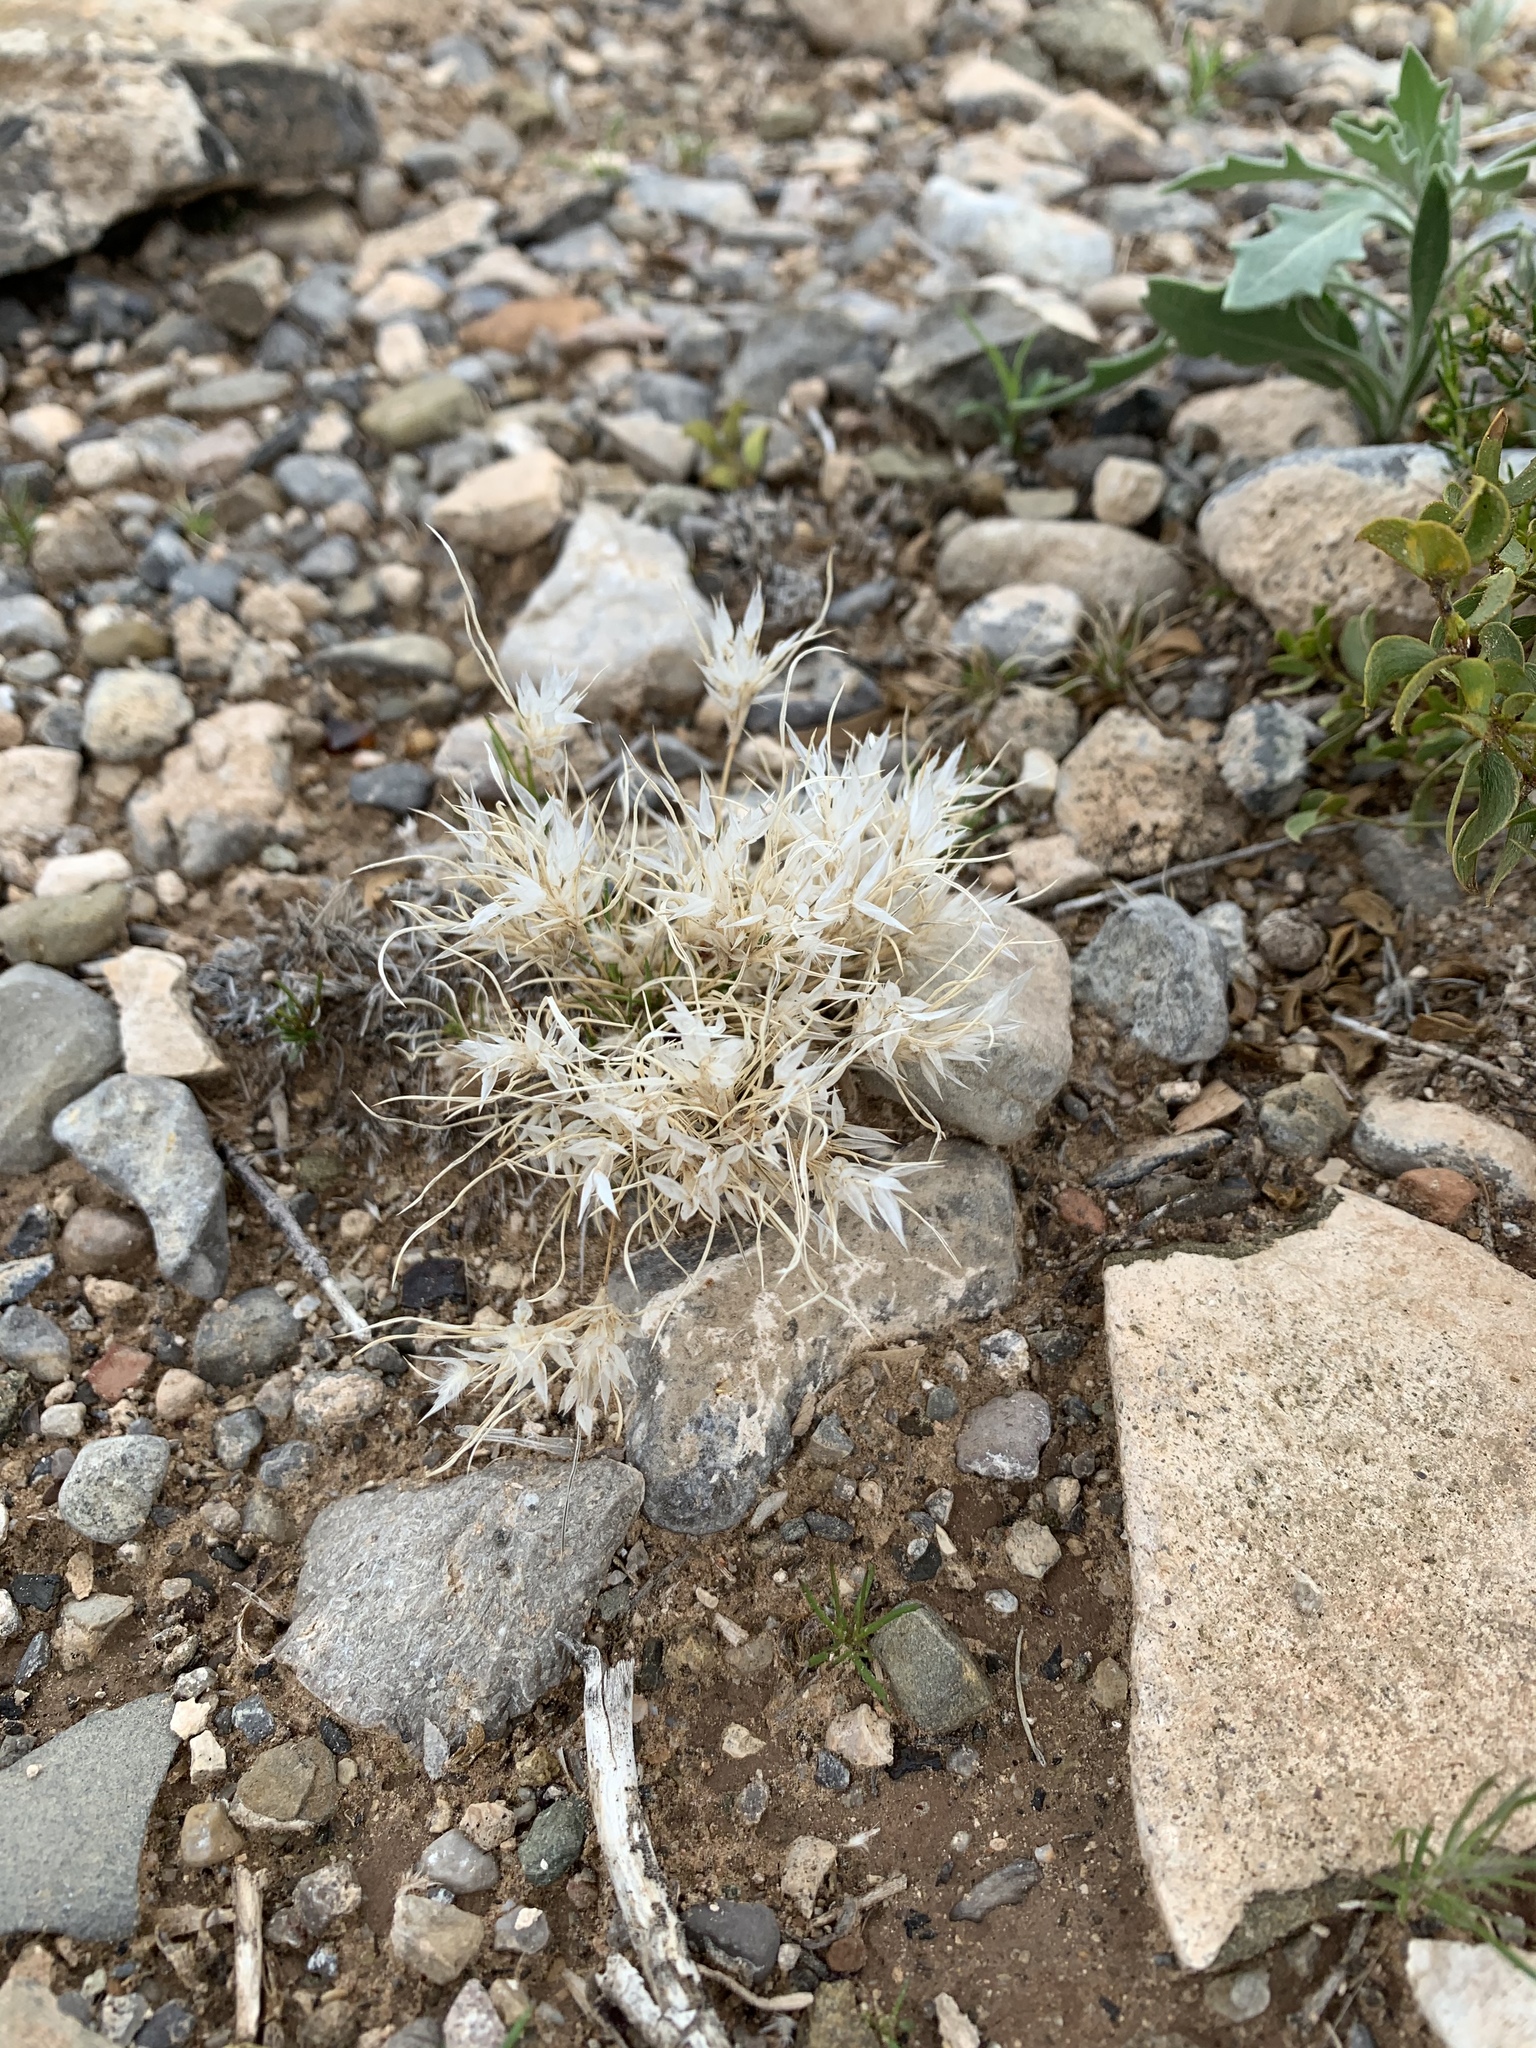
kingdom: Plantae
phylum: Tracheophyta
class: Liliopsida
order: Poales
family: Poaceae
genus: Dasyochloa
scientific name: Dasyochloa pulchella
